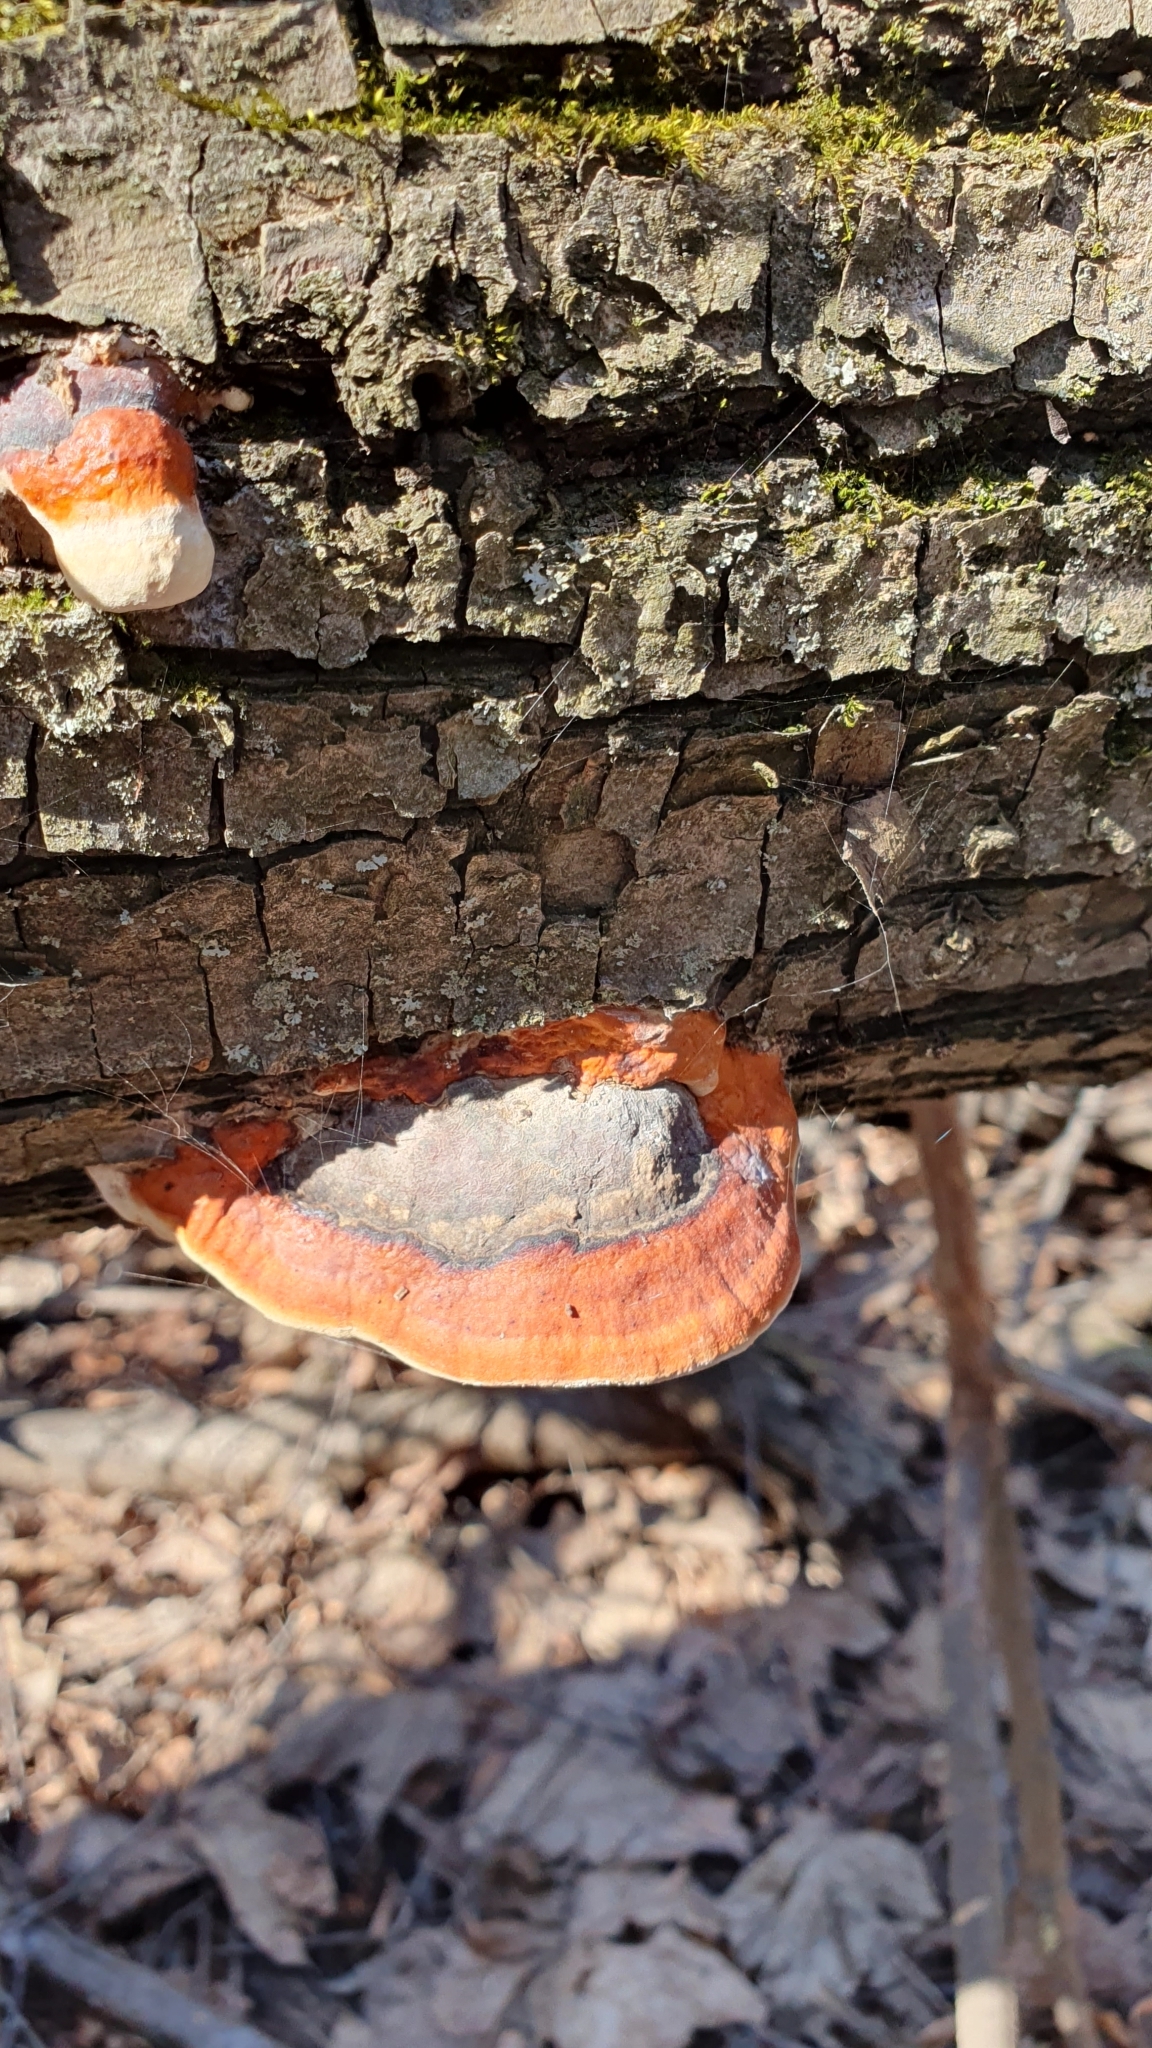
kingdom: Fungi
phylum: Basidiomycota
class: Agaricomycetes
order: Polyporales
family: Fomitopsidaceae
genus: Fomitopsis
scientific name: Fomitopsis pinicola
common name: Red-belted bracket
